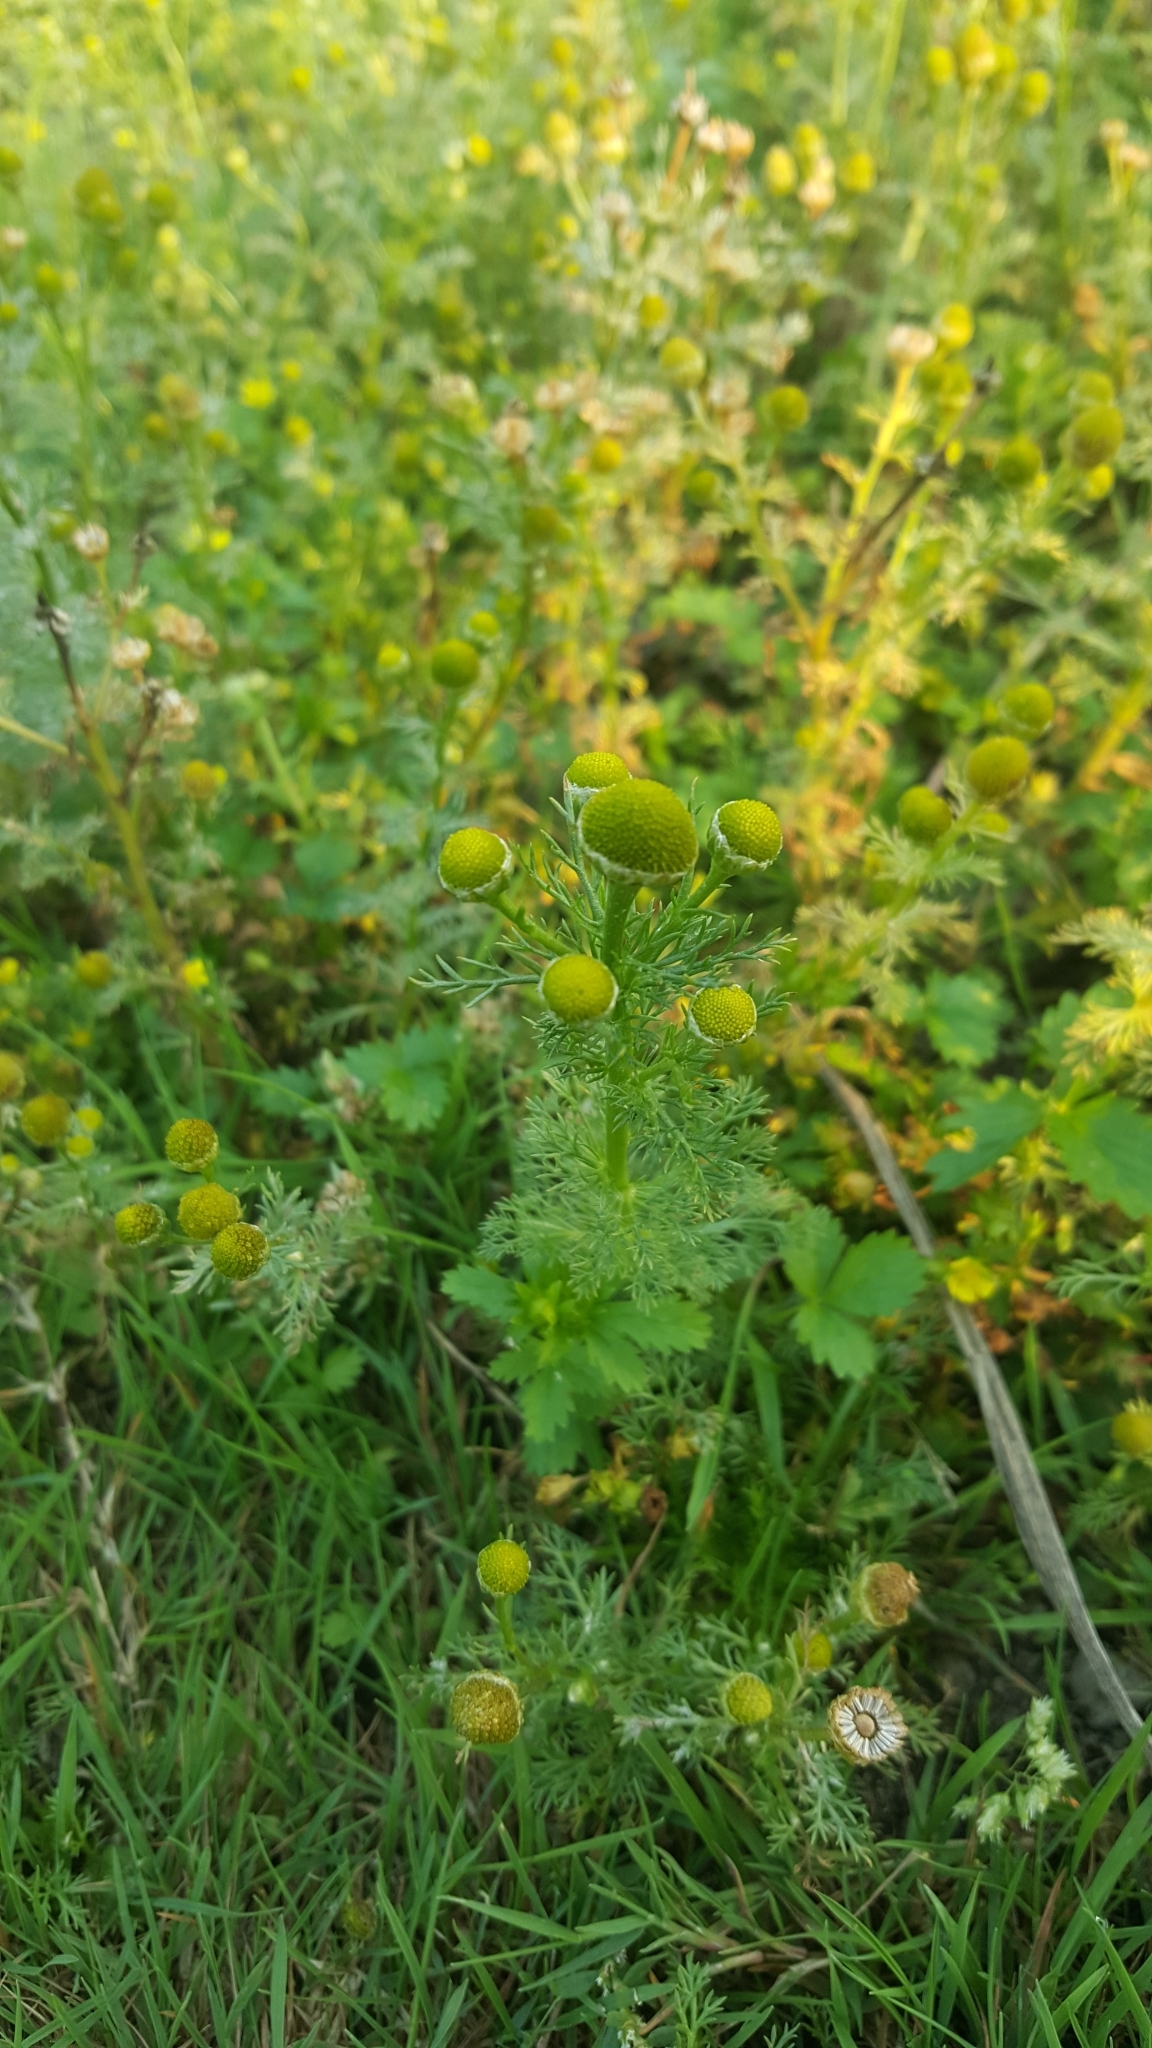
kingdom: Plantae
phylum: Tracheophyta
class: Magnoliopsida
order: Asterales
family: Asteraceae
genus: Matricaria
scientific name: Matricaria discoidea
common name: Disc mayweed
